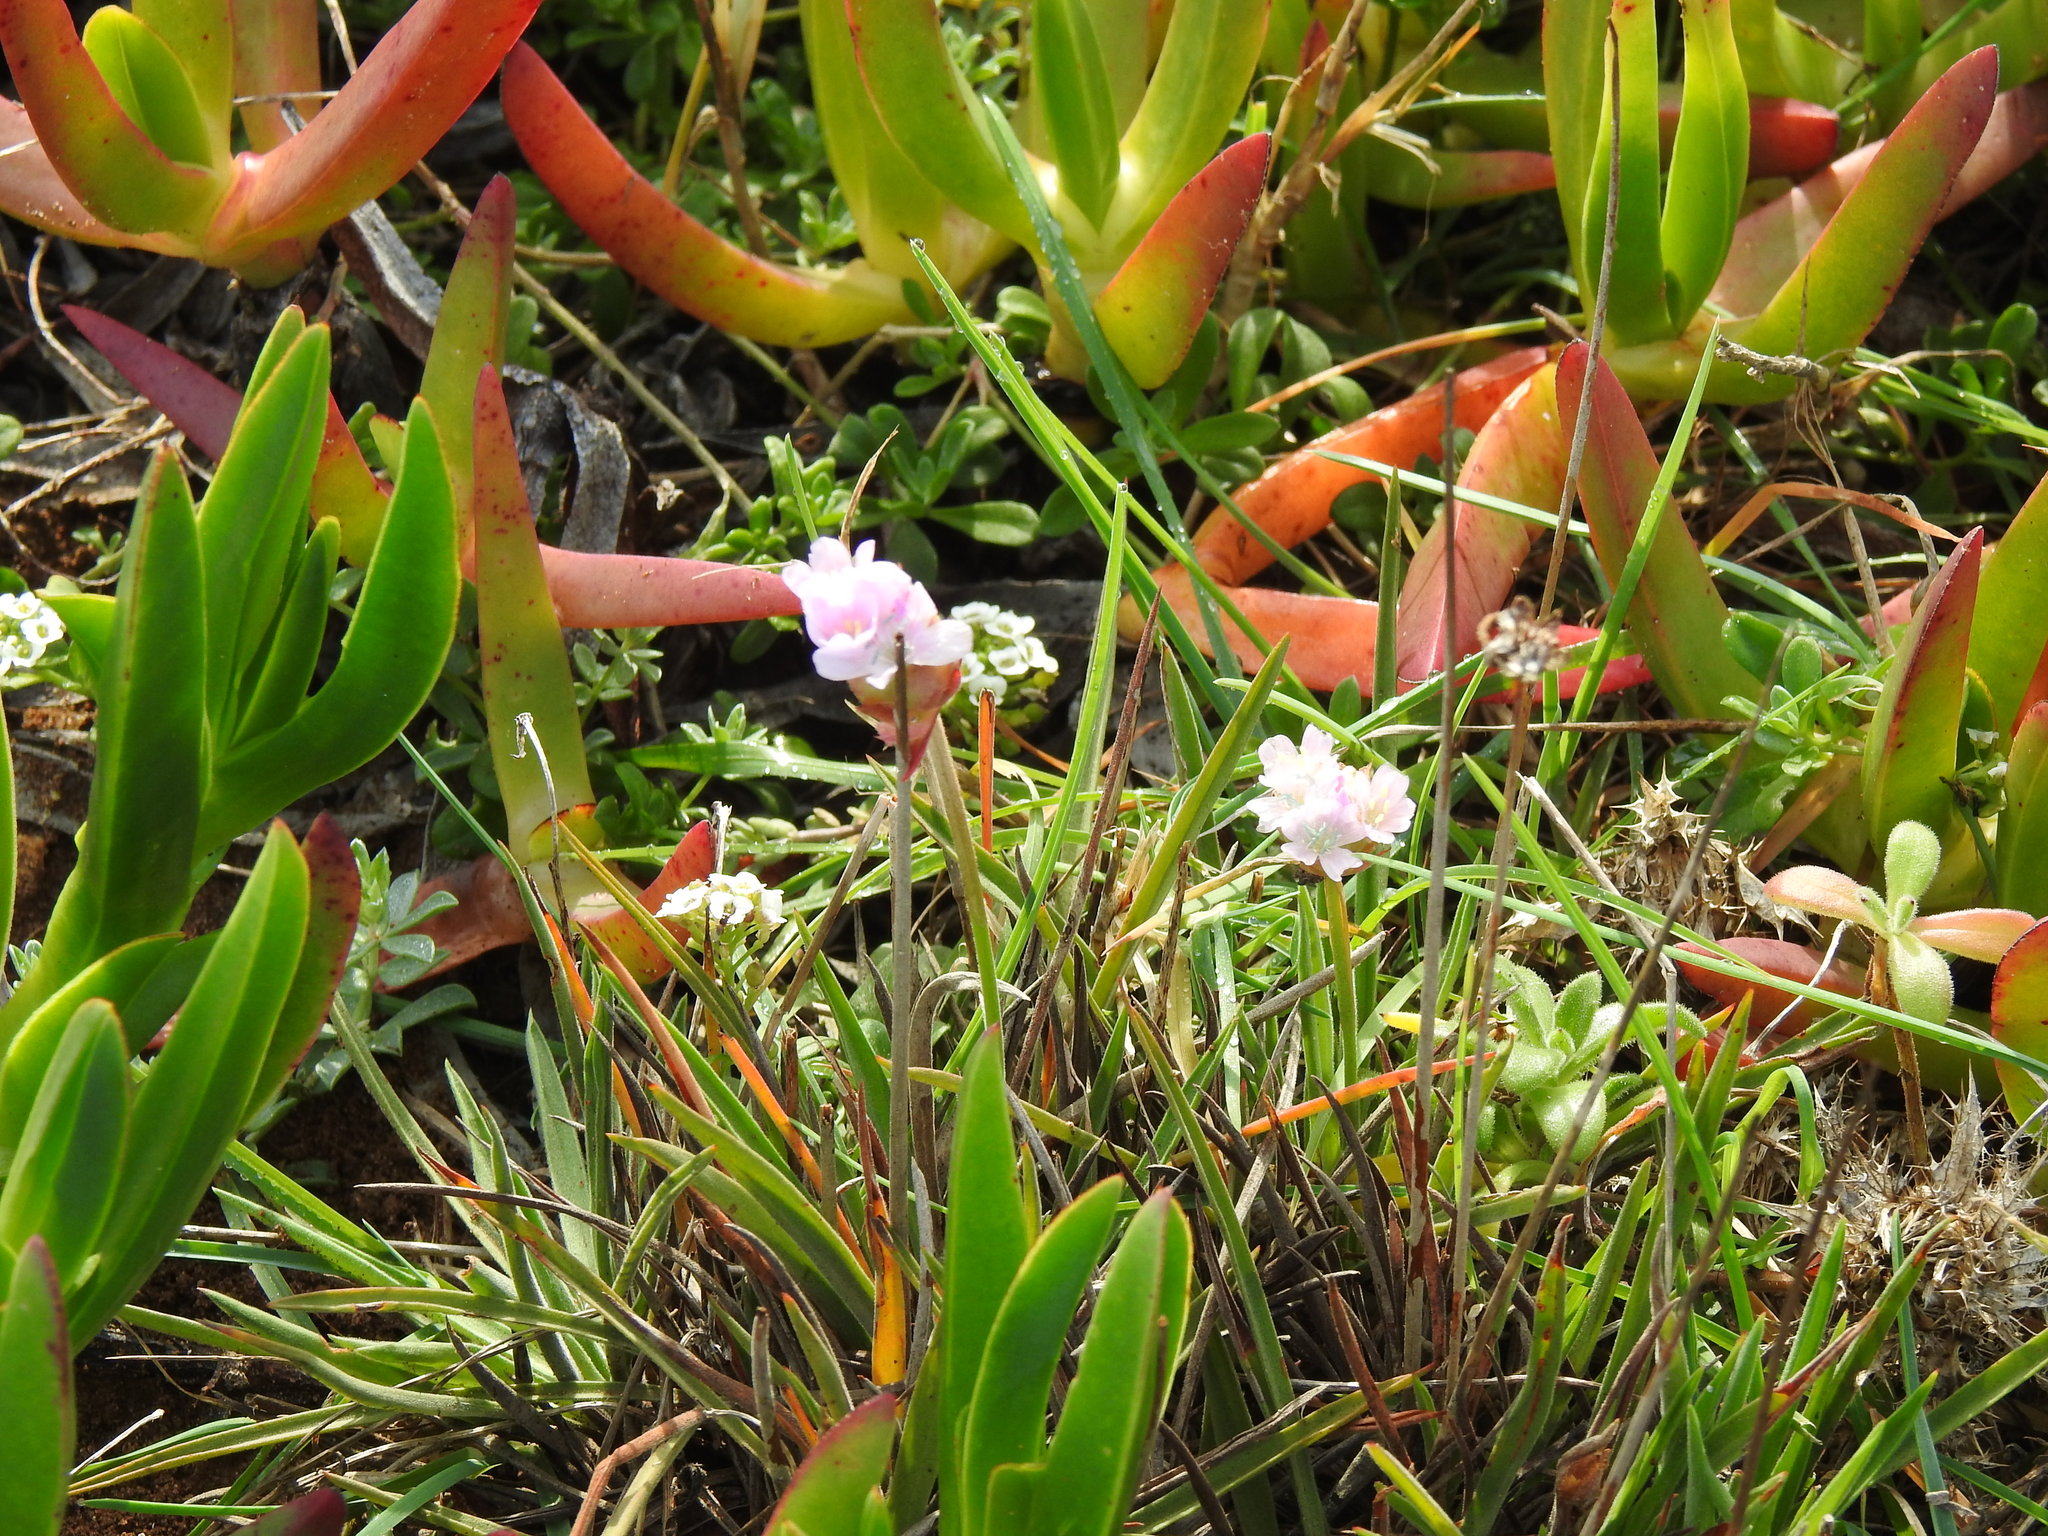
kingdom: Plantae
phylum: Tracheophyta
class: Magnoliopsida
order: Caryophyllales
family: Plumbaginaceae
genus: Armeria
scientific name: Armeria welwitschii
